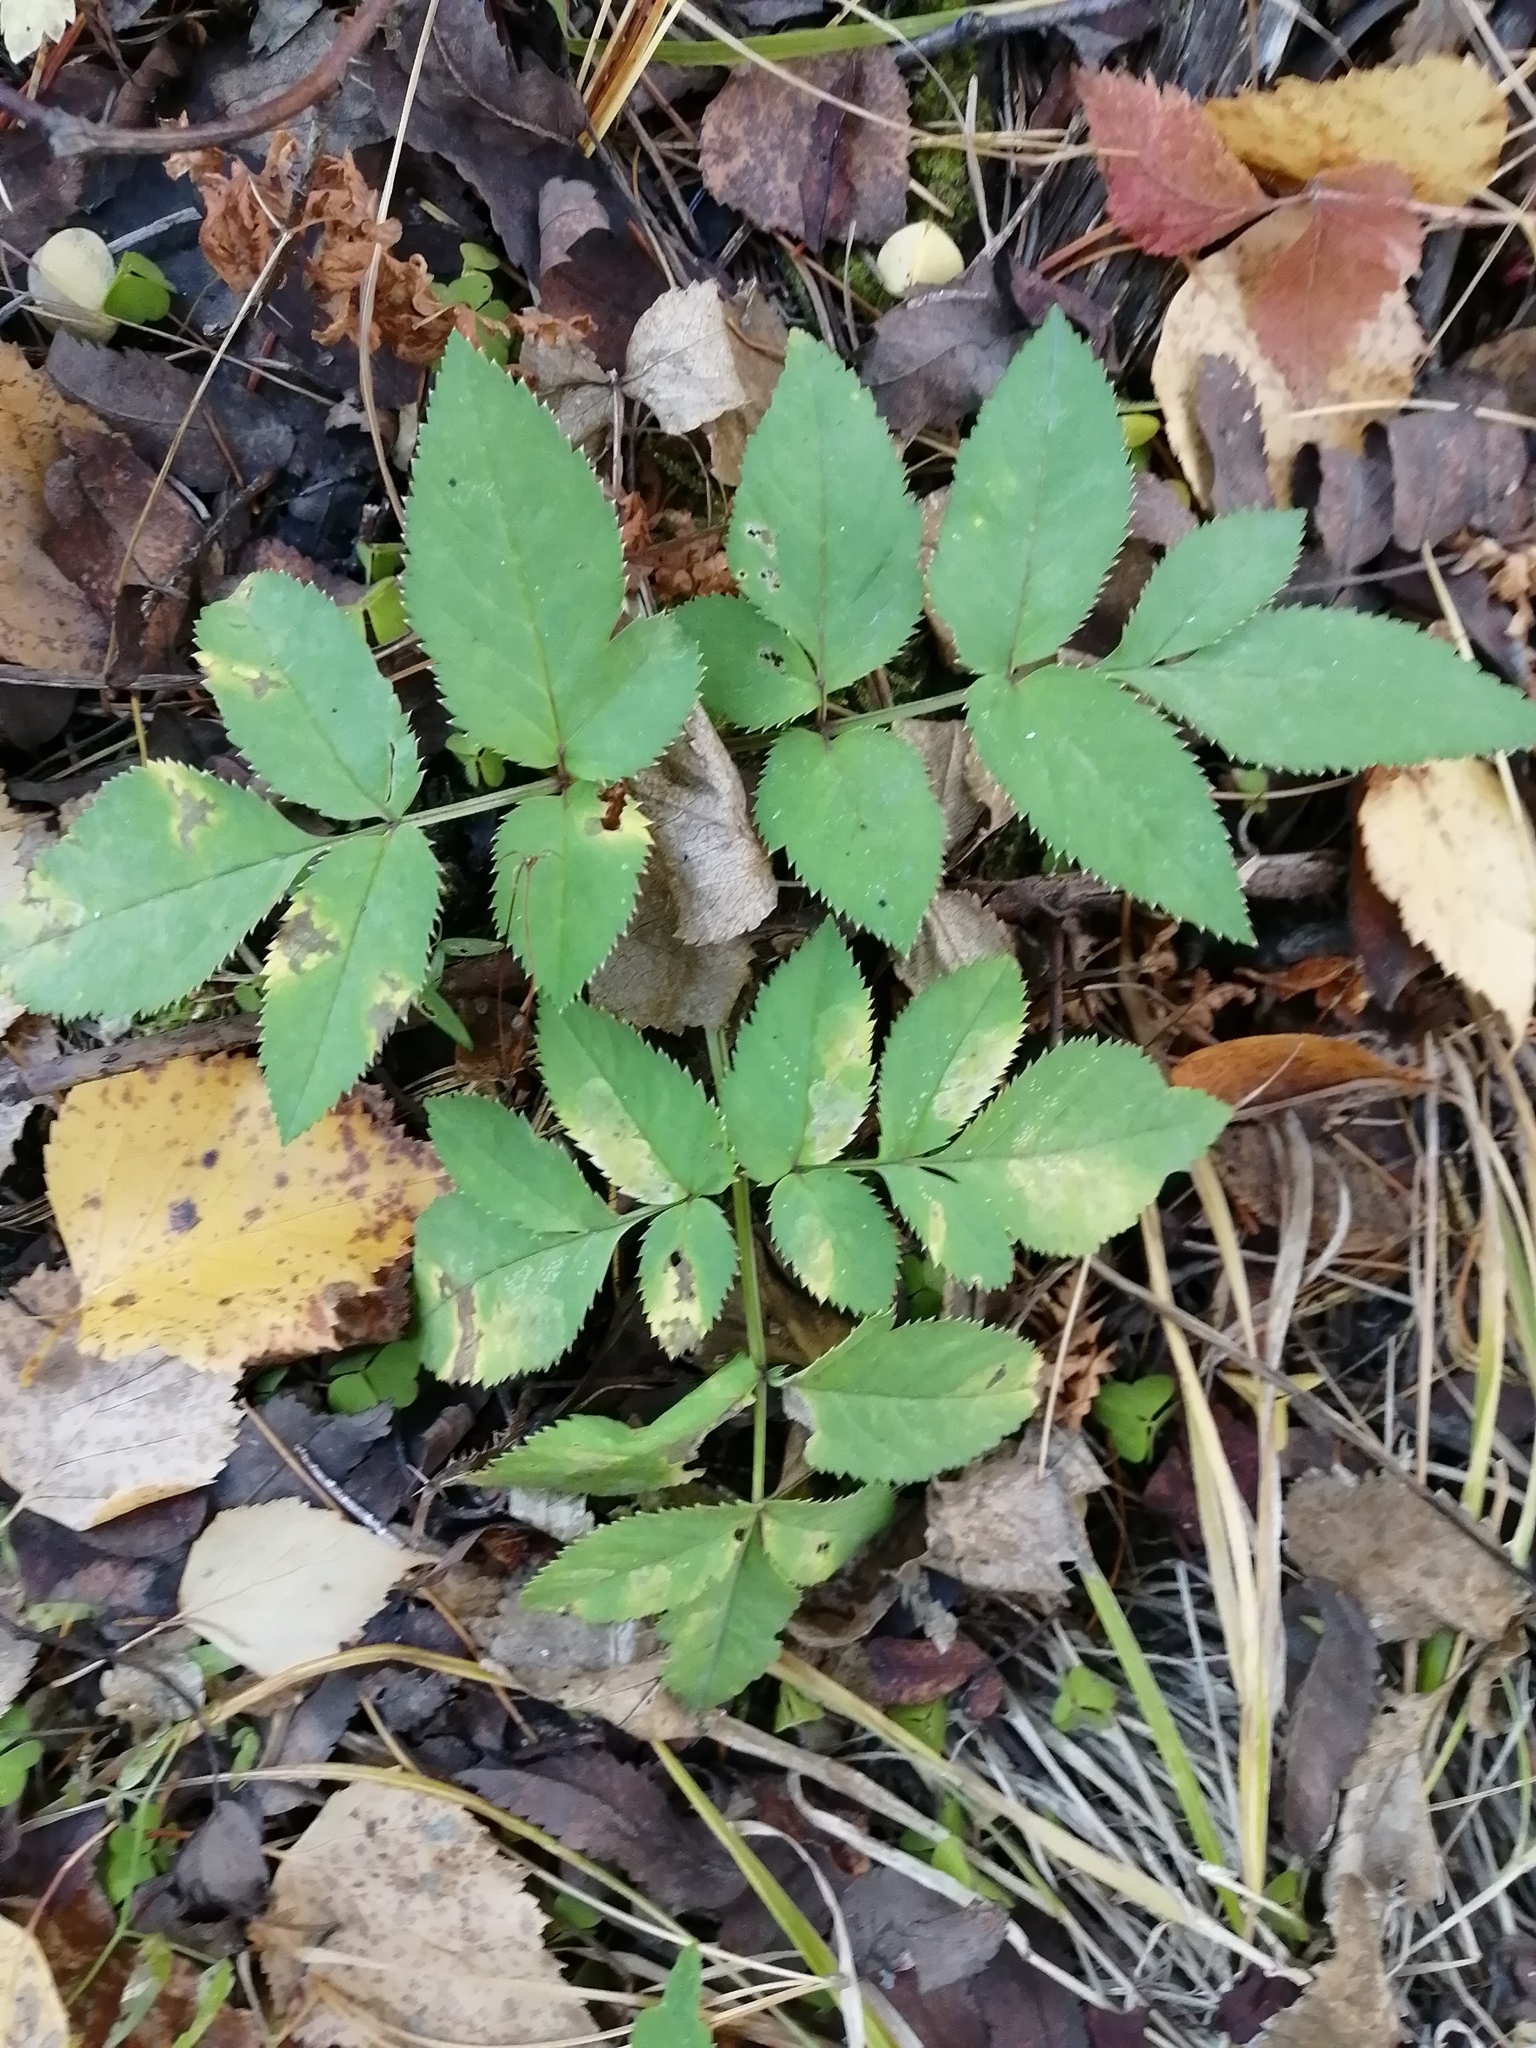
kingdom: Plantae
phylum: Tracheophyta
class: Magnoliopsida
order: Apiales
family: Apiaceae
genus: Angelica
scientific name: Angelica sylvestris
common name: Wild angelica
